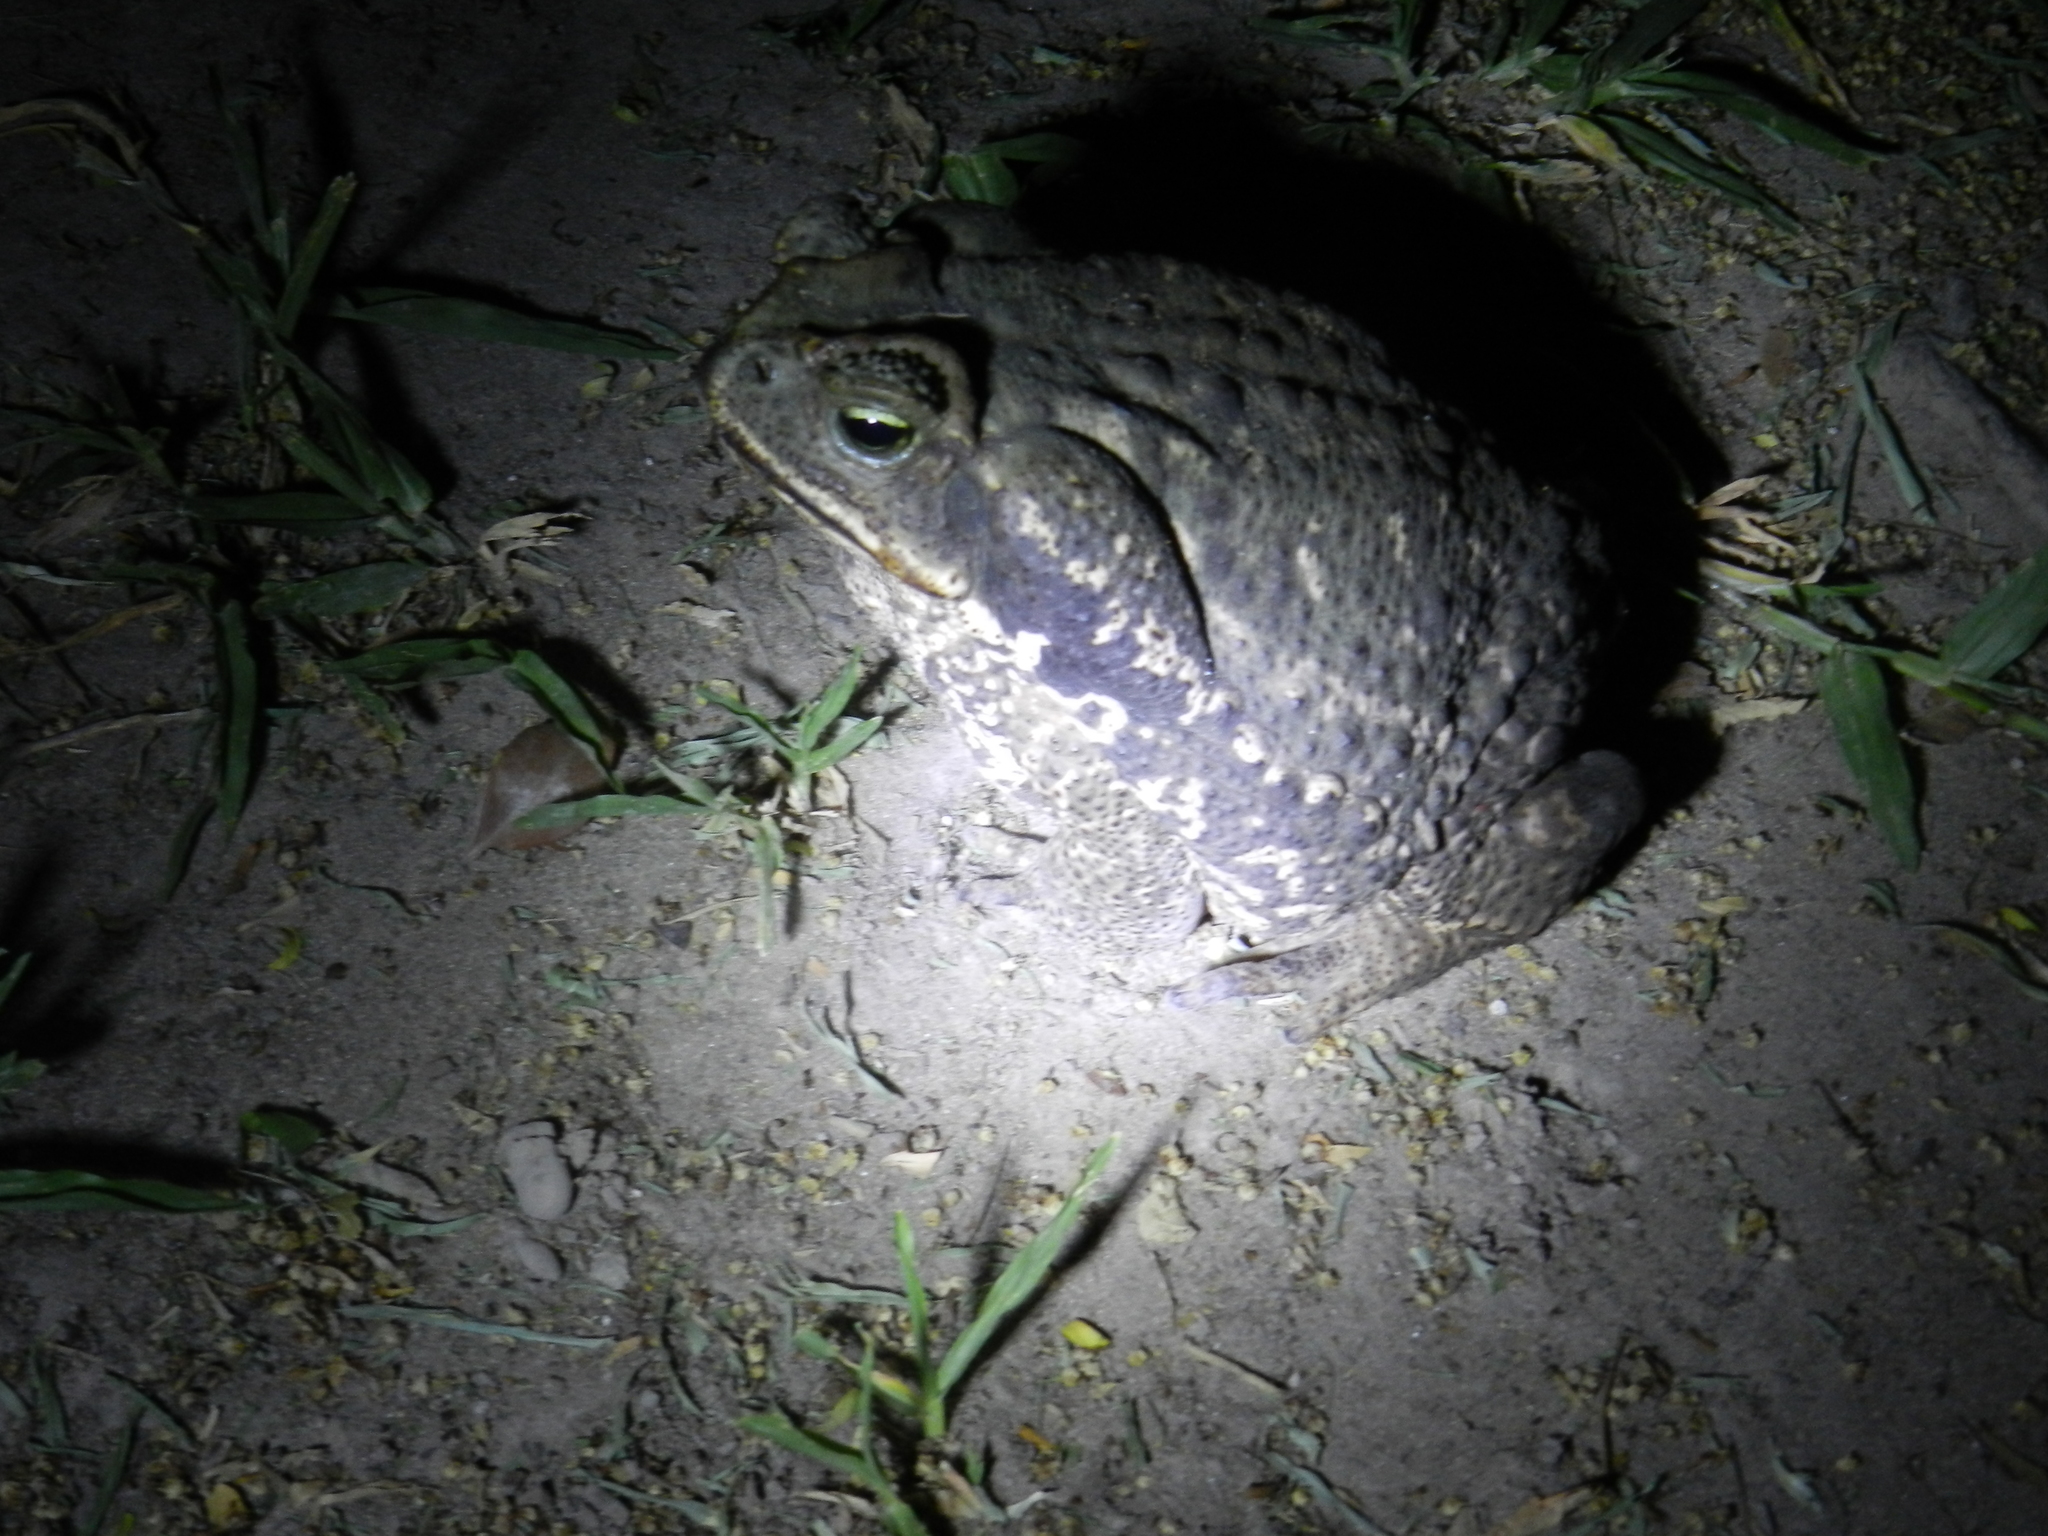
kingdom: Animalia
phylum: Chordata
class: Amphibia
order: Anura
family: Bufonidae
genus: Rhinella
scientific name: Rhinella diptycha
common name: Cope's toad
